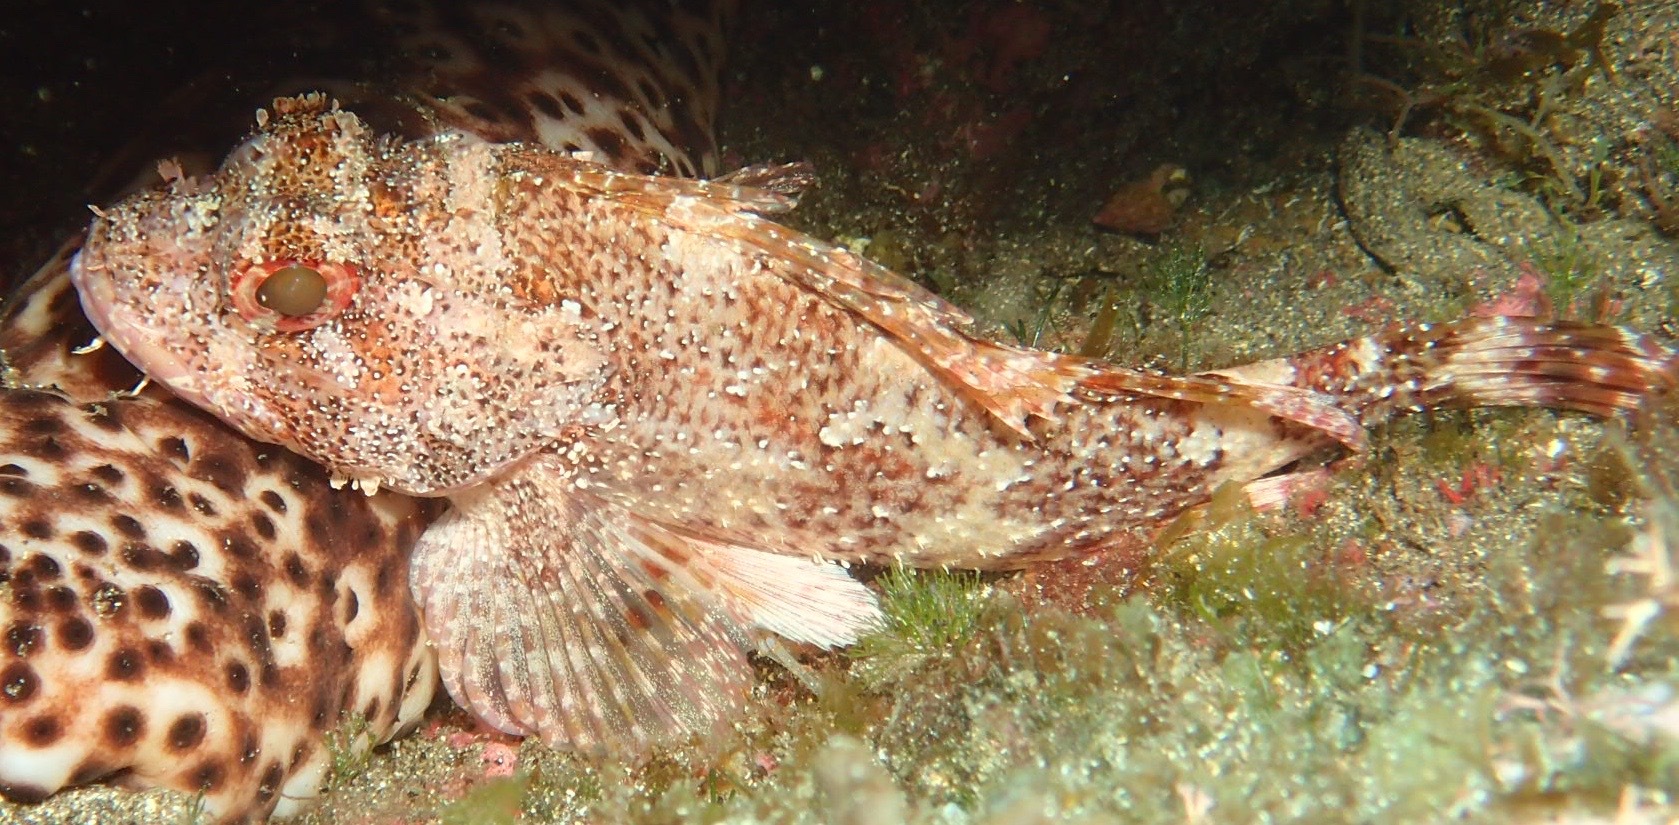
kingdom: Animalia
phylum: Chordata
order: Scorpaeniformes
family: Scorpaenidae
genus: Scorpaena
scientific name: Scorpaena maderensis
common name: Madeira rockfish
